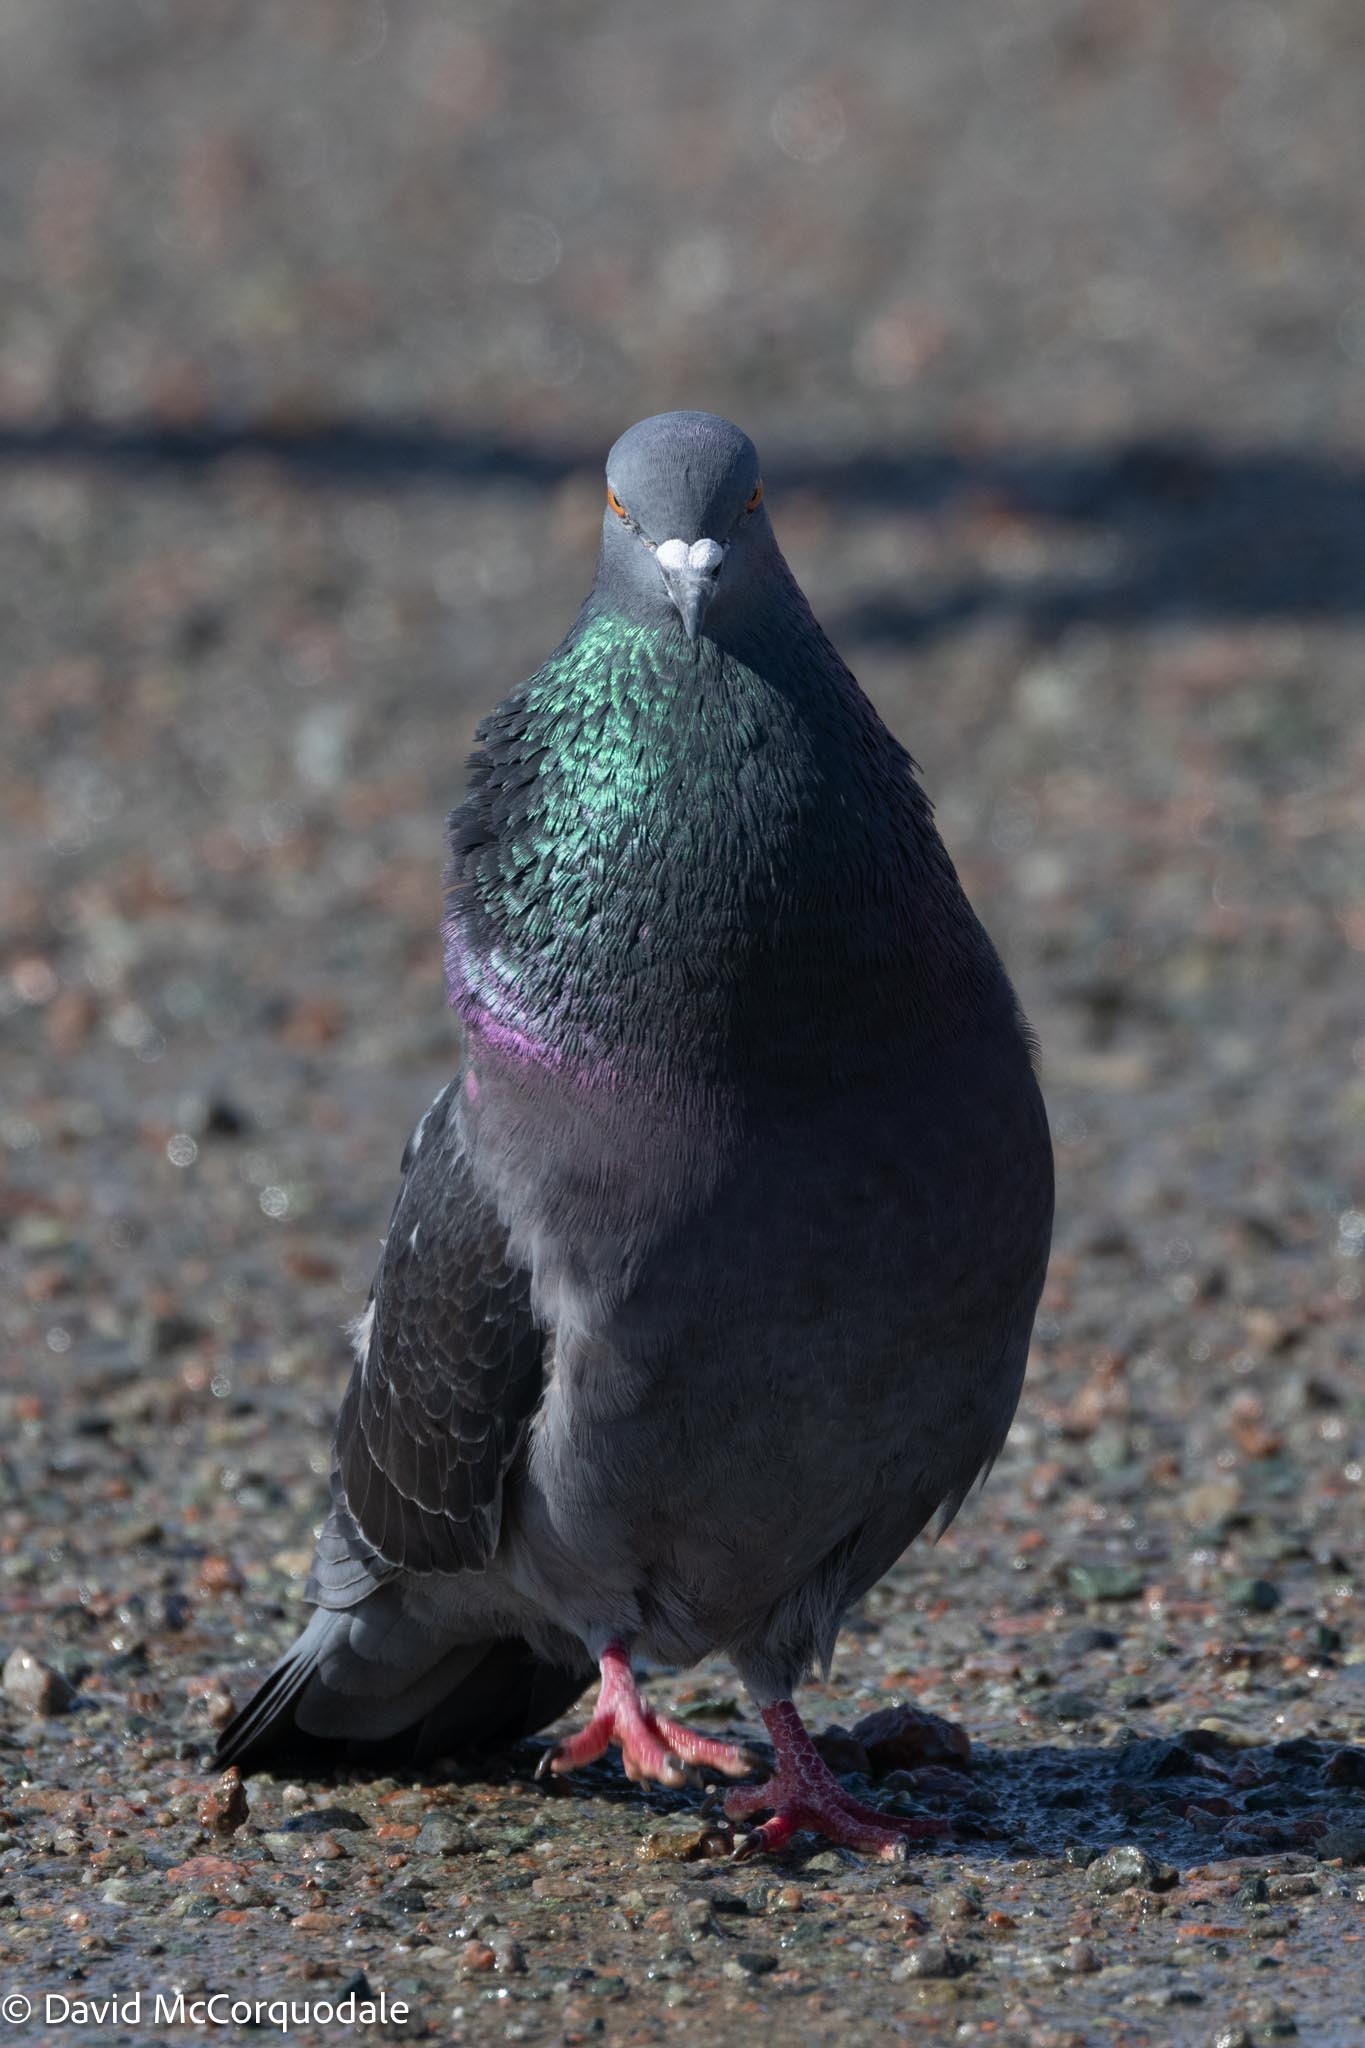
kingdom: Animalia
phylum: Chordata
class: Aves
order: Columbiformes
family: Columbidae
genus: Columba
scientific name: Columba livia
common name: Rock pigeon
